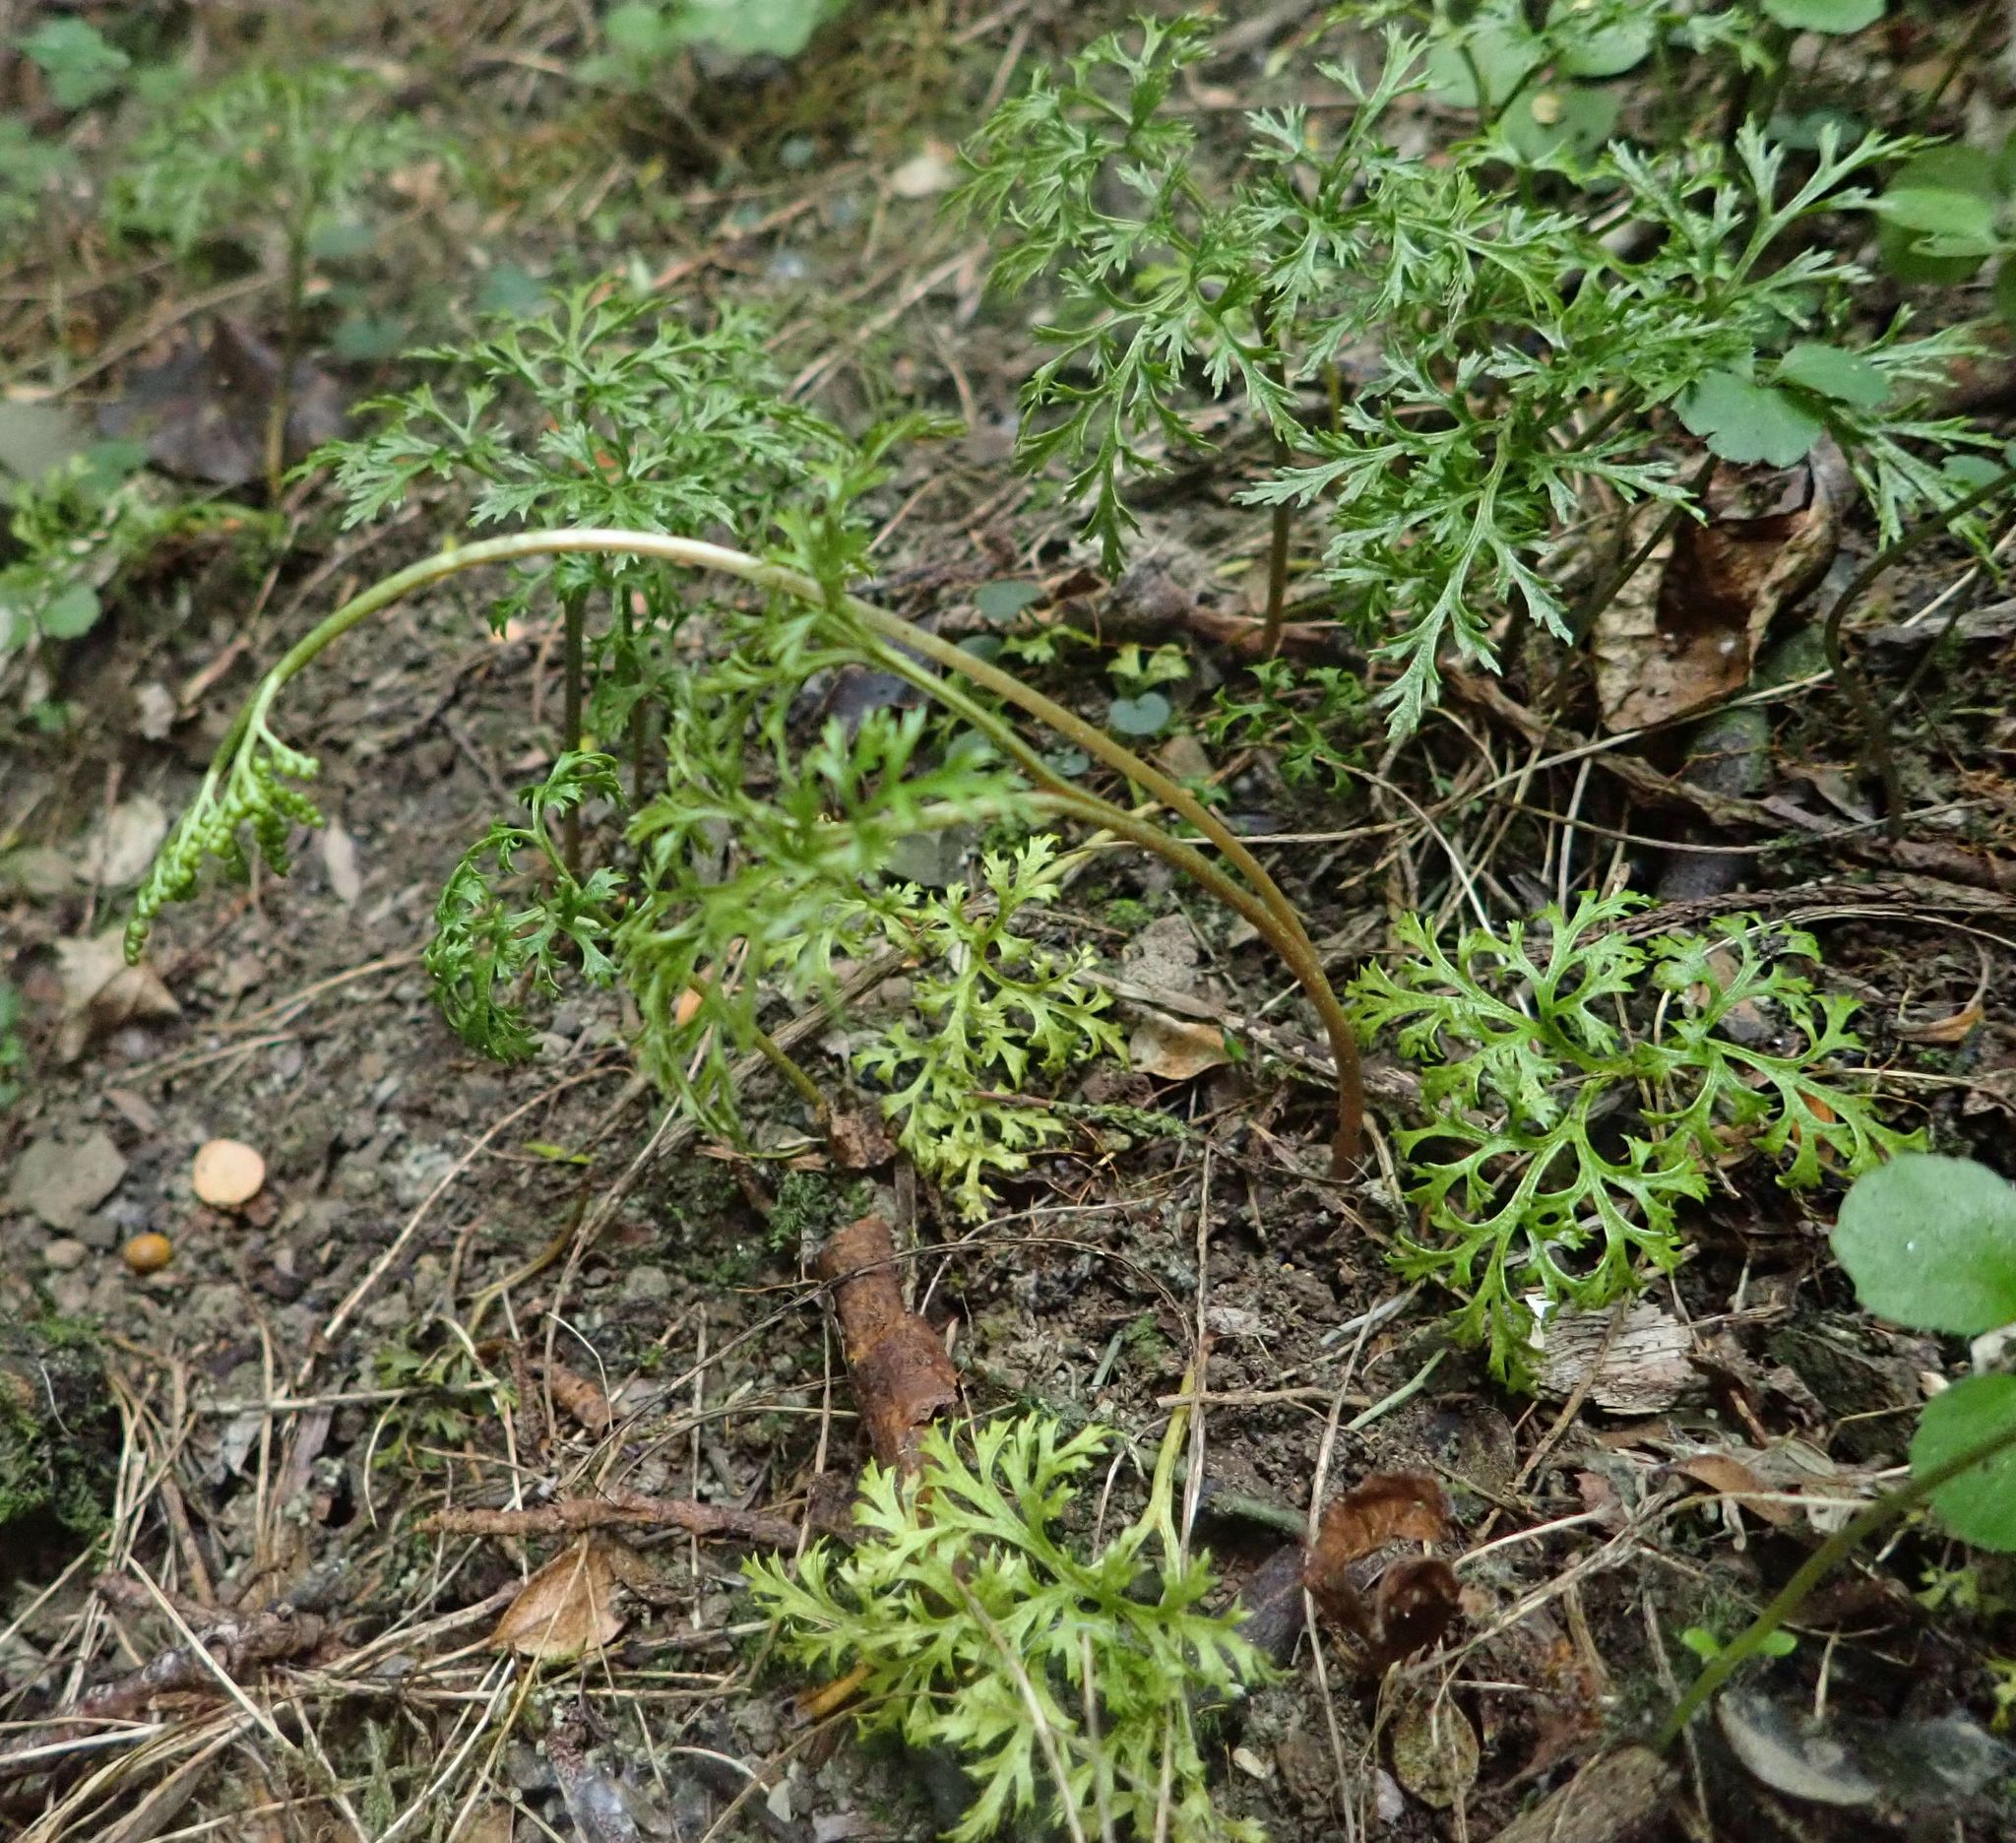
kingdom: Plantae
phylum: Tracheophyta
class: Polypodiopsida
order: Ophioglossales
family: Ophioglossaceae
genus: Sceptridium
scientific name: Sceptridium biforme
